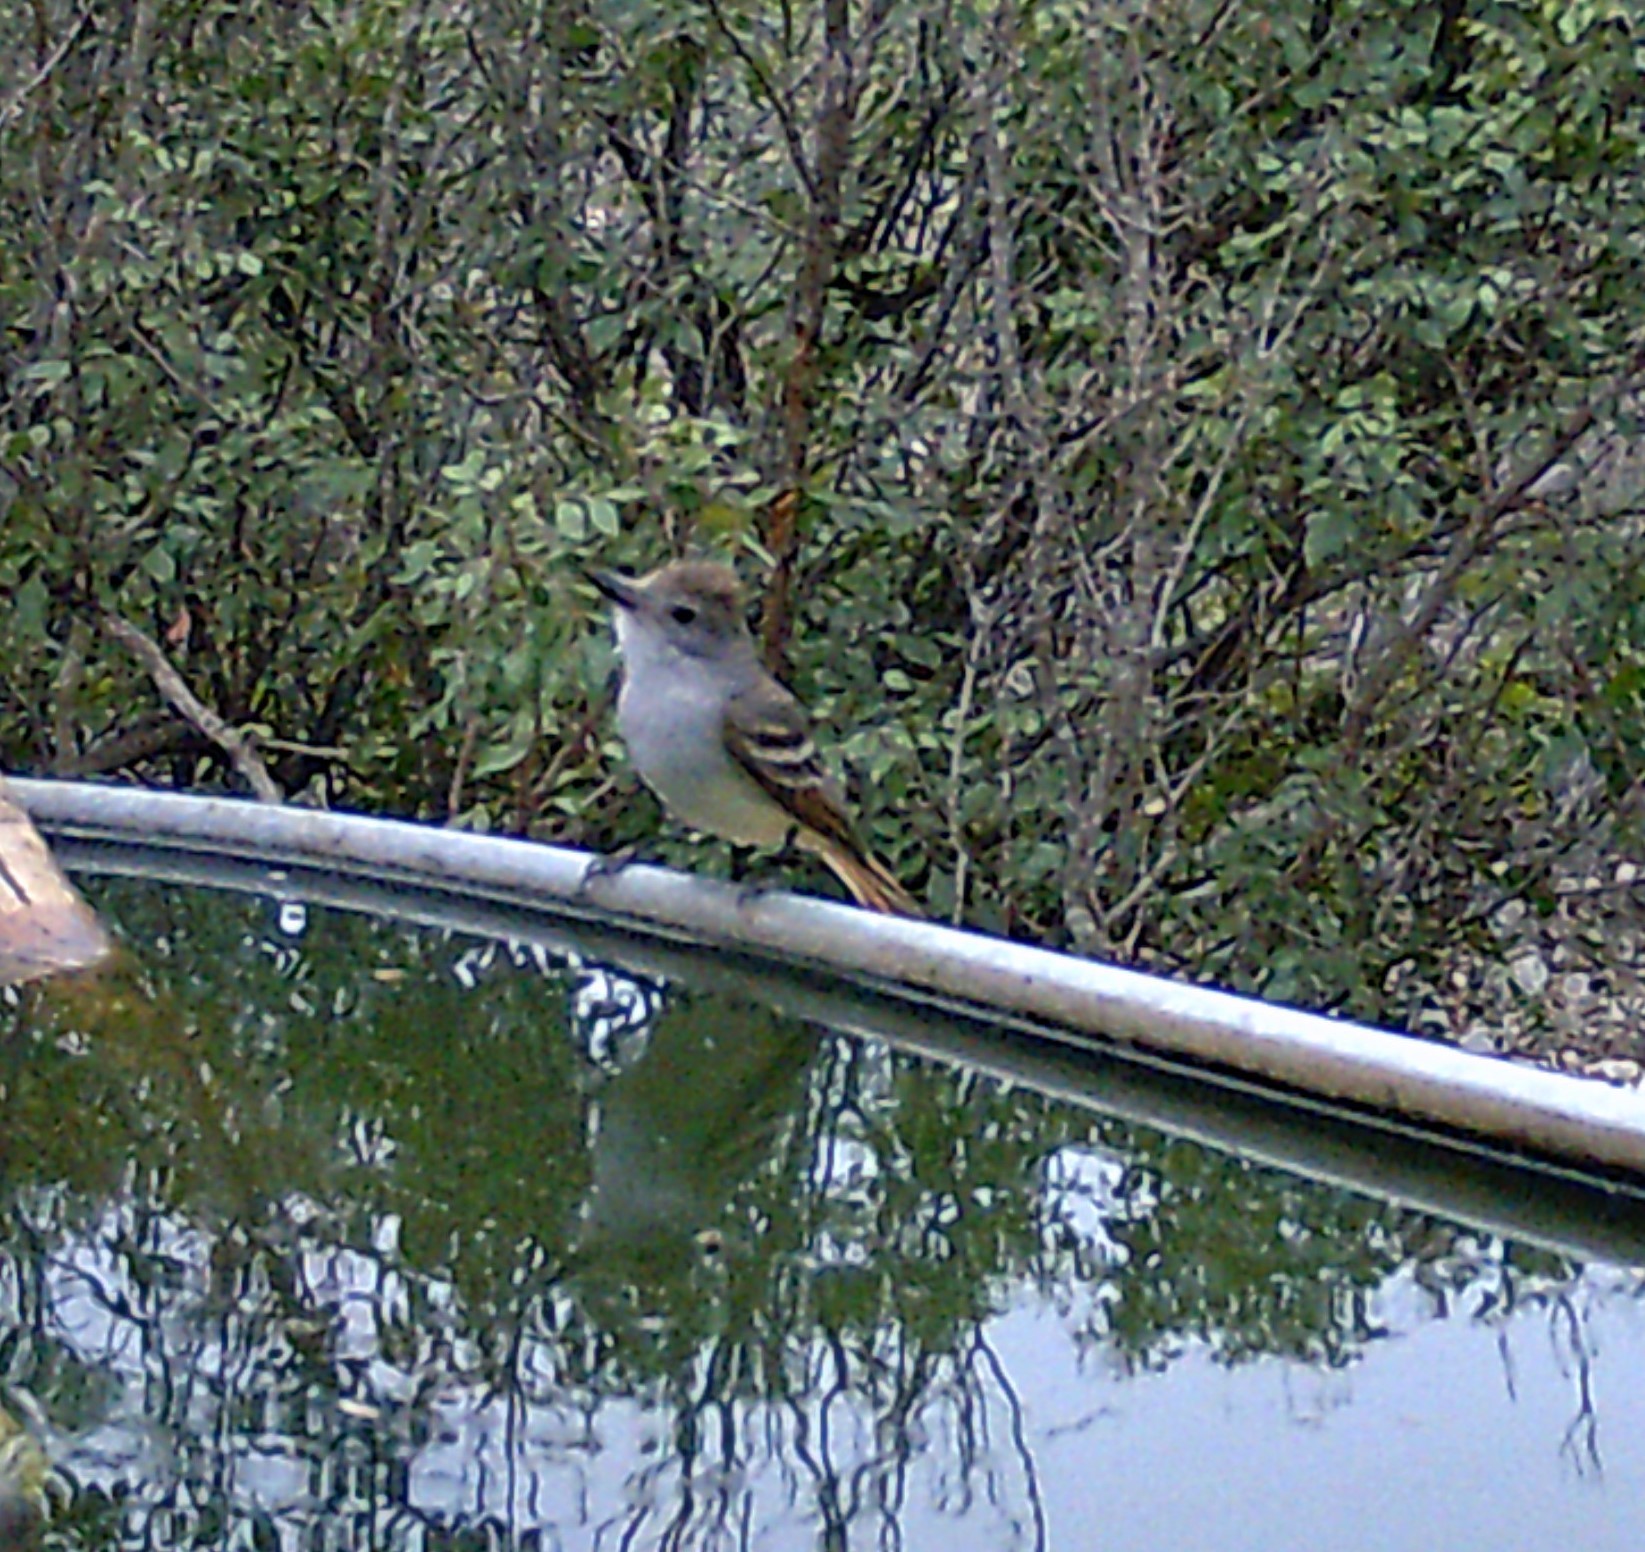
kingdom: Animalia
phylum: Chordata
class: Aves
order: Passeriformes
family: Tyrannidae
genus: Myiarchus
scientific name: Myiarchus cinerascens
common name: Ash-throated flycatcher
